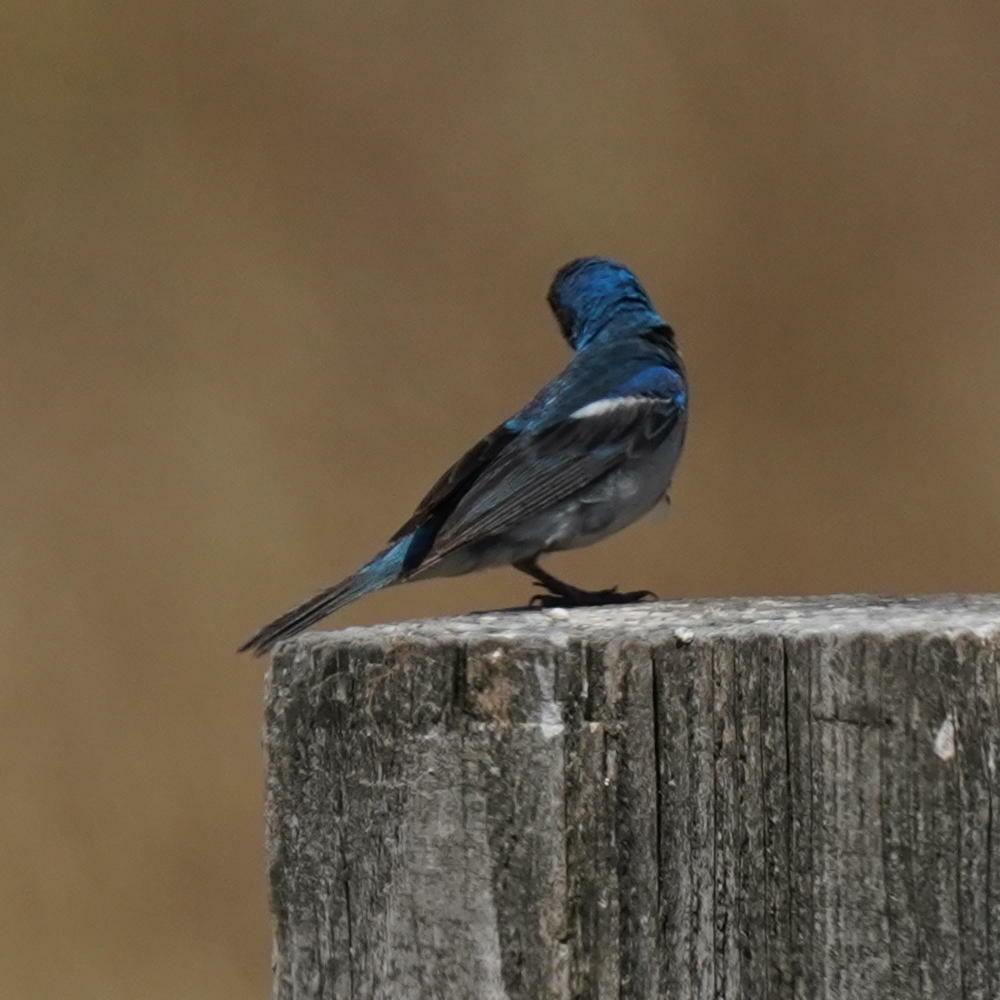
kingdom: Animalia
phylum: Chordata
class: Aves
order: Passeriformes
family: Cardinalidae
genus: Passerina
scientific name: Passerina amoena
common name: Lazuli bunting
